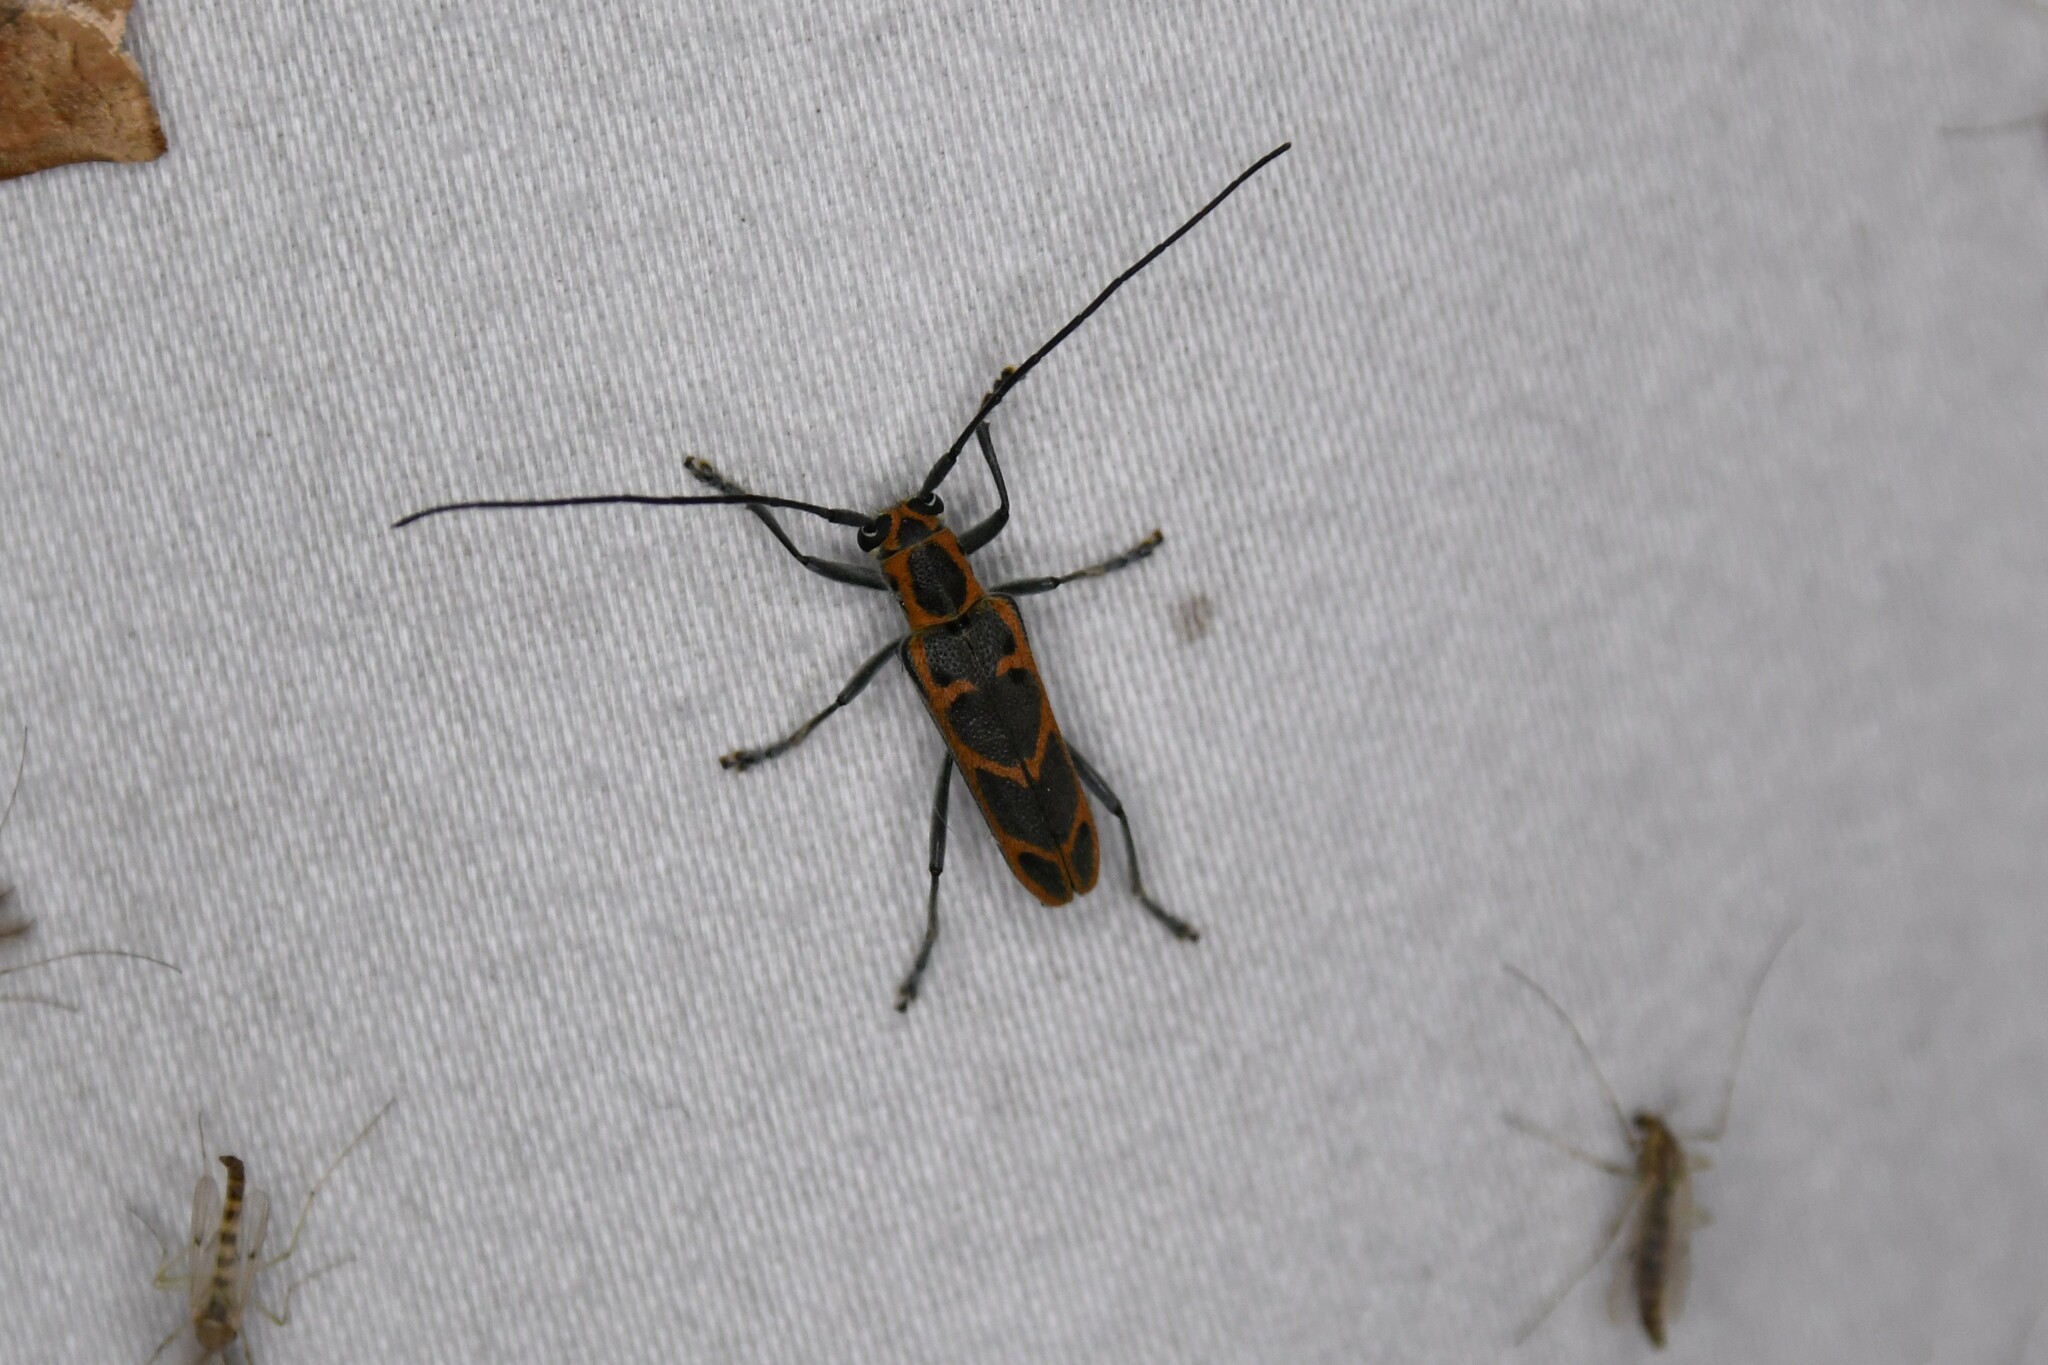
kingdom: Animalia
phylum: Arthropoda
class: Insecta
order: Coleoptera
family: Cerambycidae
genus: Saperda
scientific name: Saperda tridentata
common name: Elm borer
